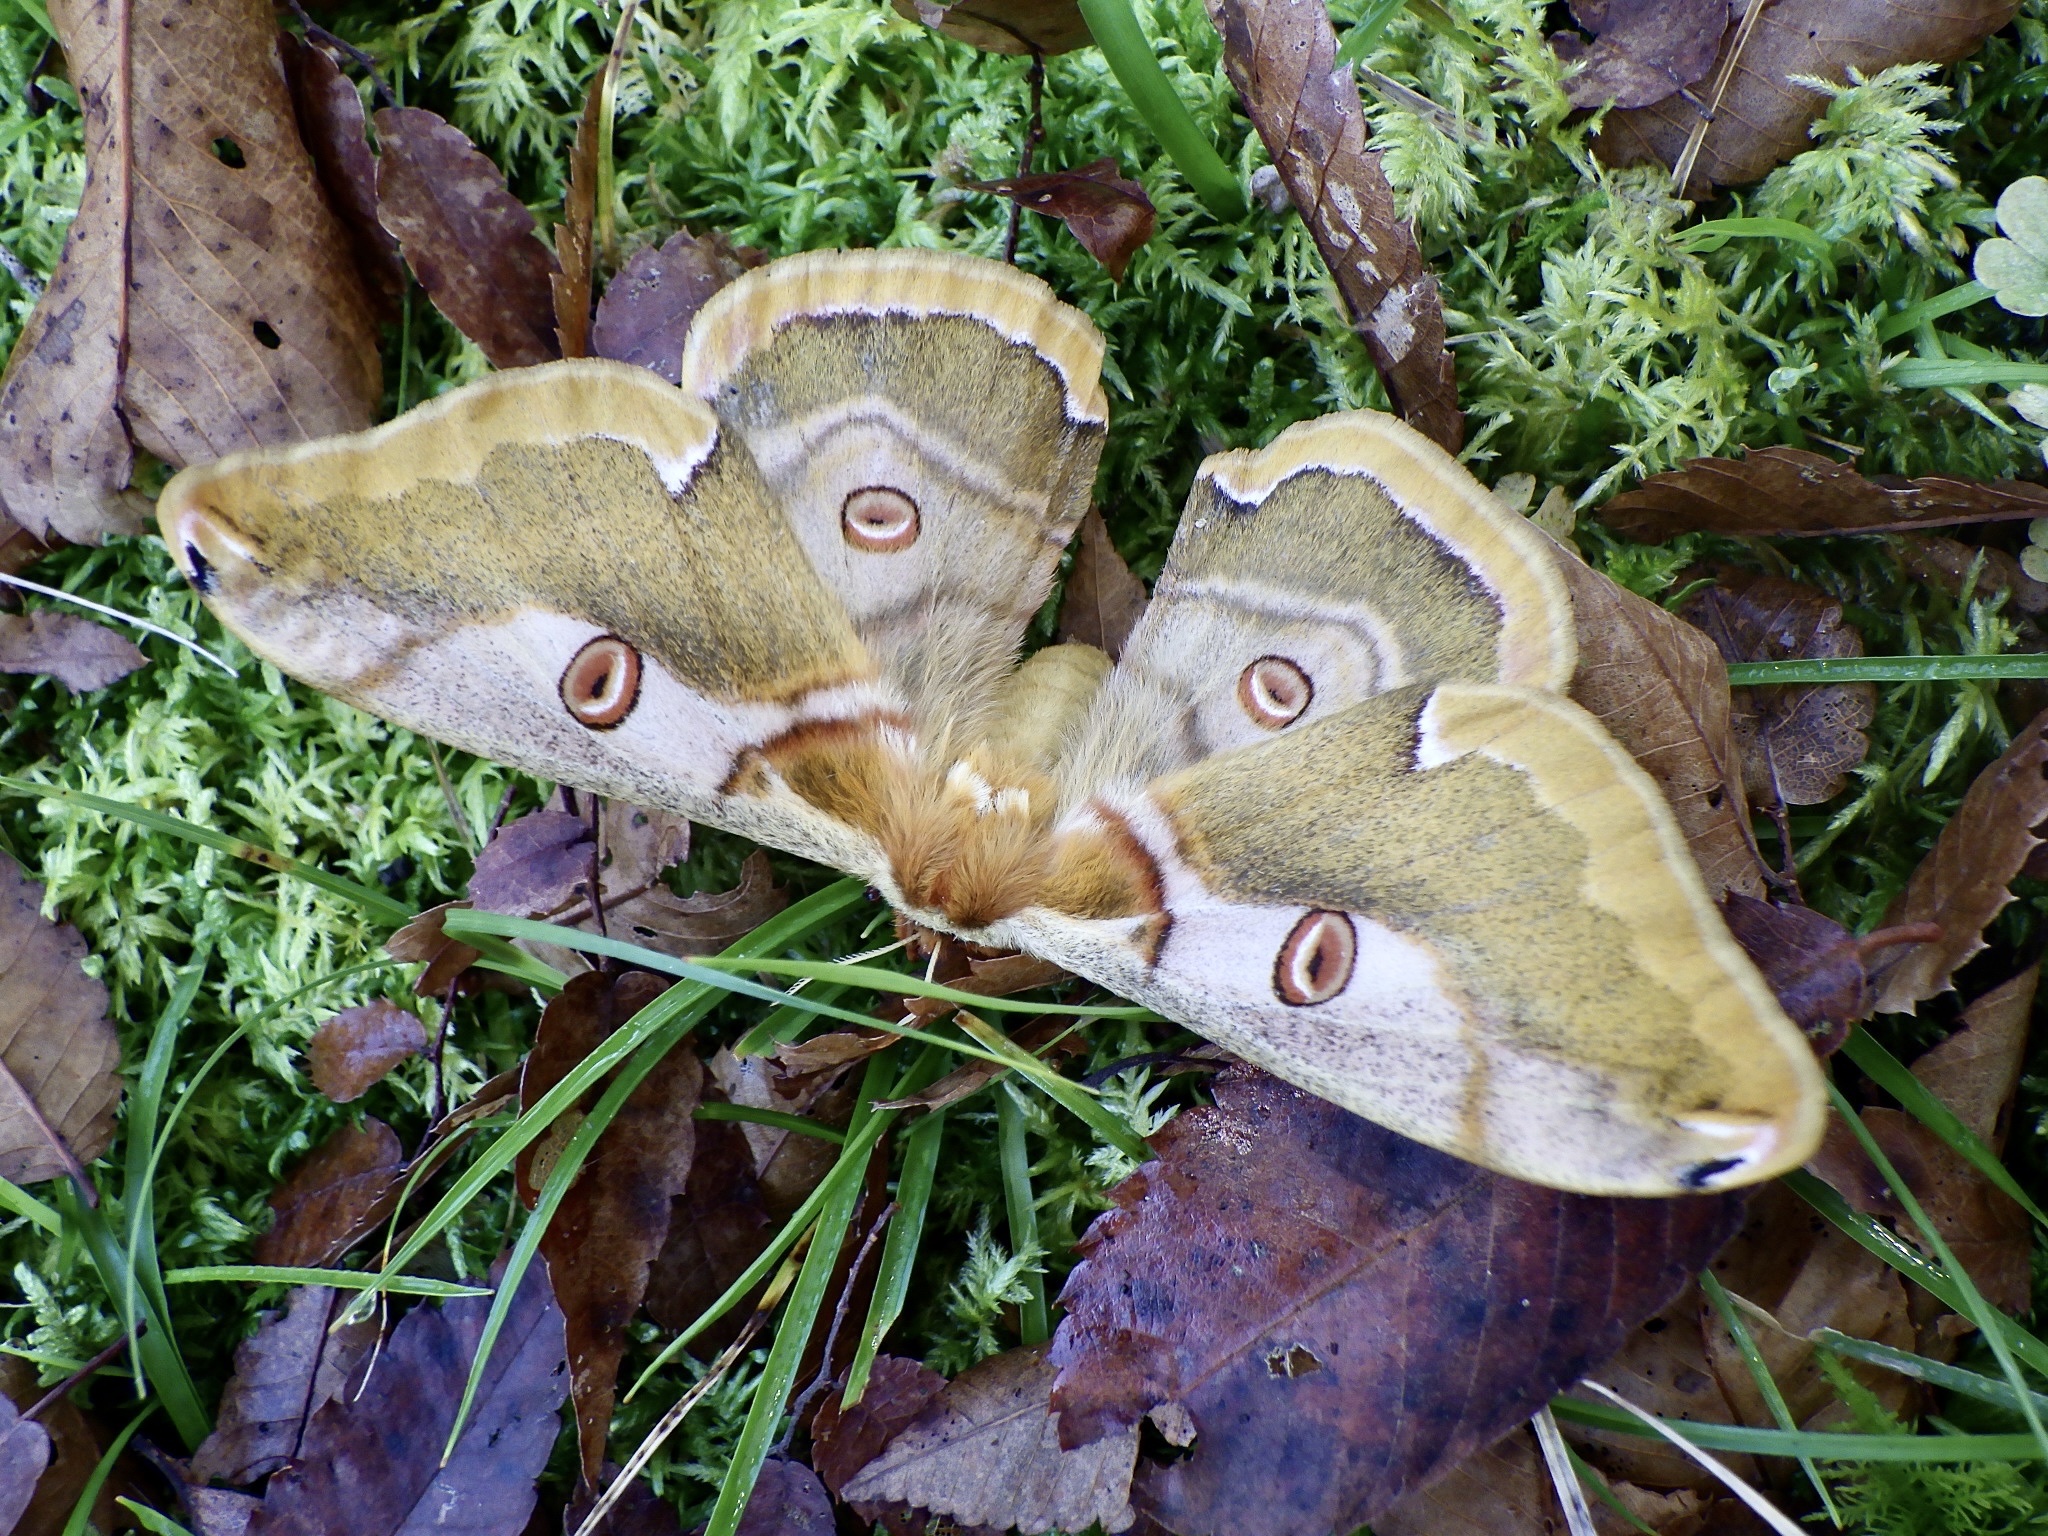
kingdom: Animalia
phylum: Arthropoda
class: Insecta
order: Lepidoptera
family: Saturniidae
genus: Saturnia
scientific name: Saturnia jonasii
